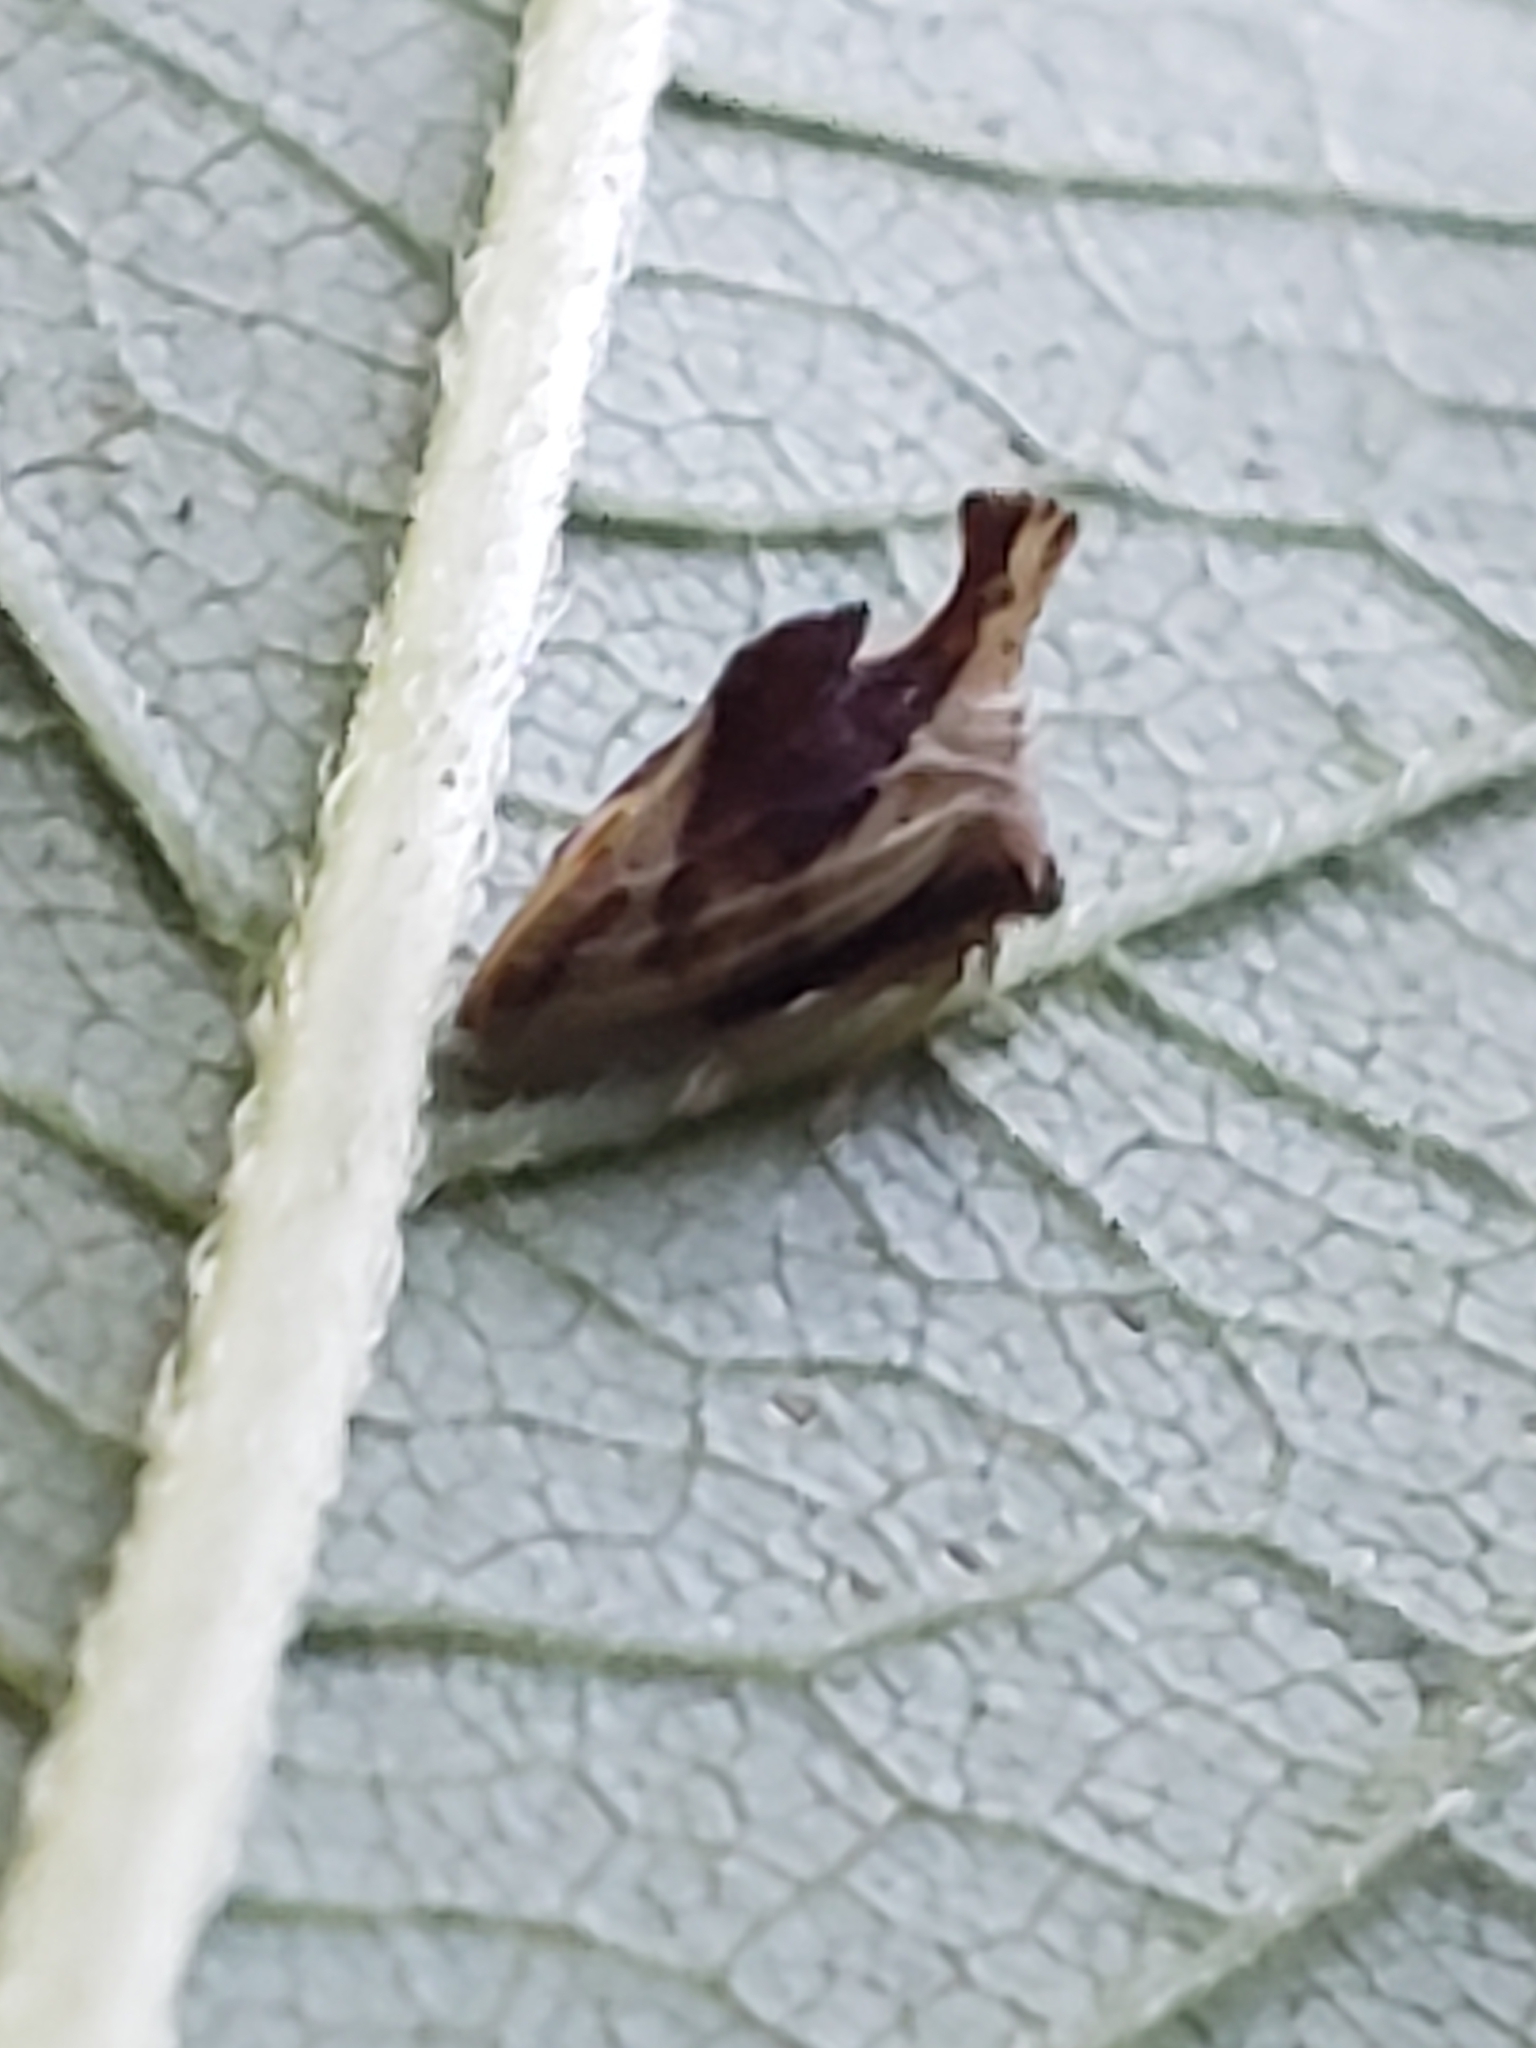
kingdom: Animalia
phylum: Arthropoda
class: Insecta
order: Hemiptera
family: Membracidae
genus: Entylia
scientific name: Entylia carinata
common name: Keeled treehopper
